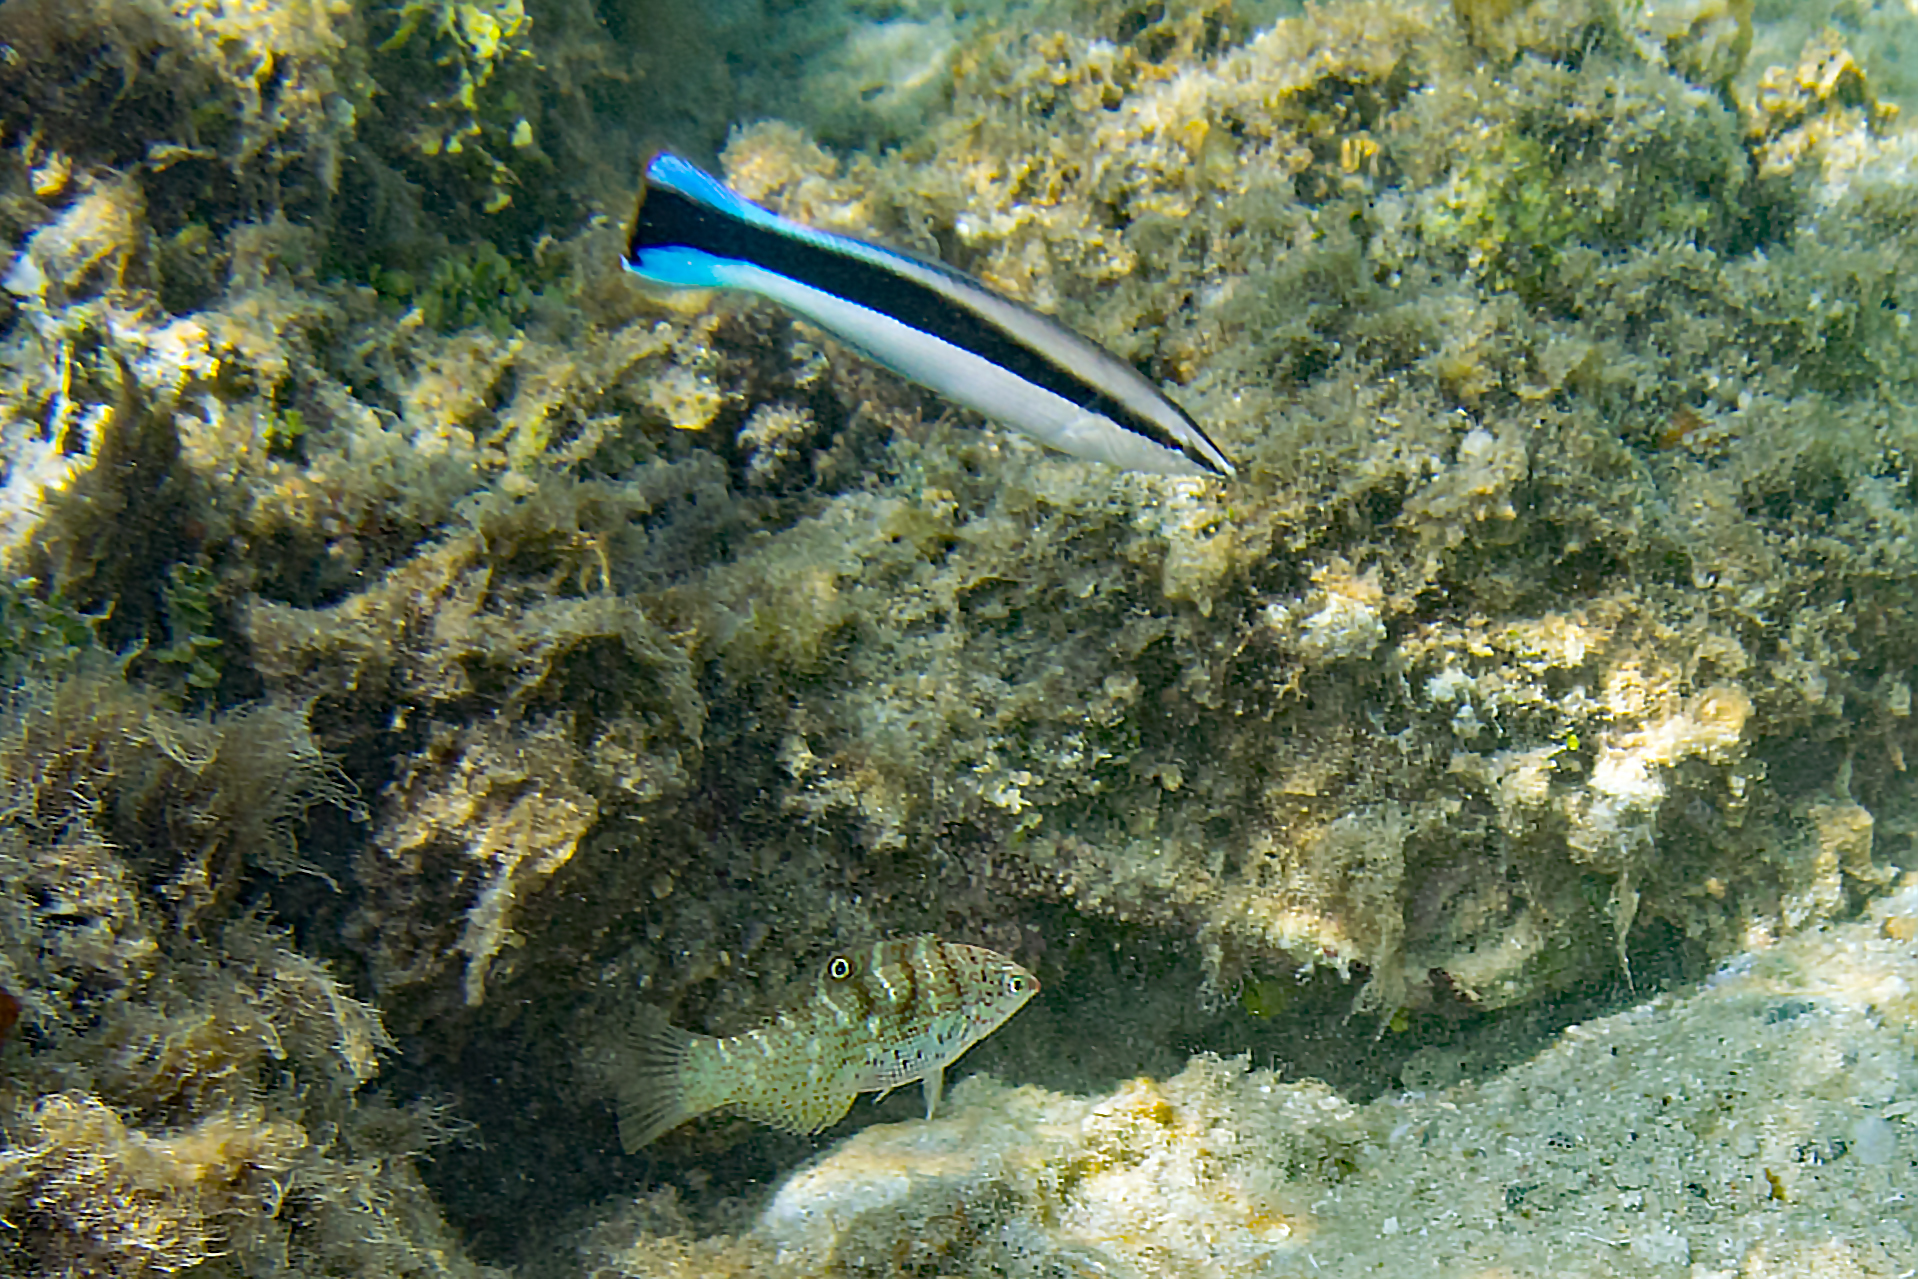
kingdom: Animalia
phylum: Chordata
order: Perciformes
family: Labridae
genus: Coris
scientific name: Coris batuensis
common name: Batu coris
